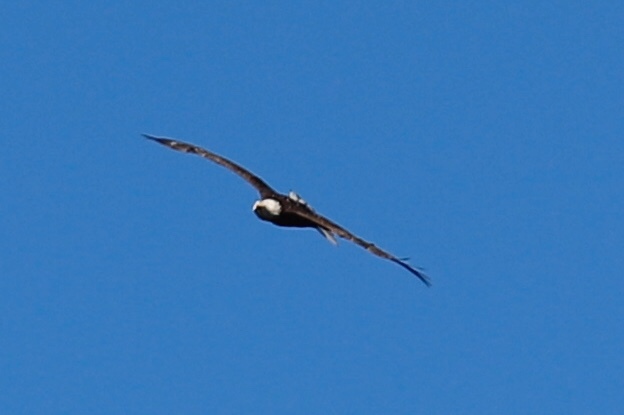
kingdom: Animalia
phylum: Chordata
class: Aves
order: Accipitriformes
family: Accipitridae
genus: Haliaeetus
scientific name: Haliaeetus leucocephalus
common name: Bald eagle
